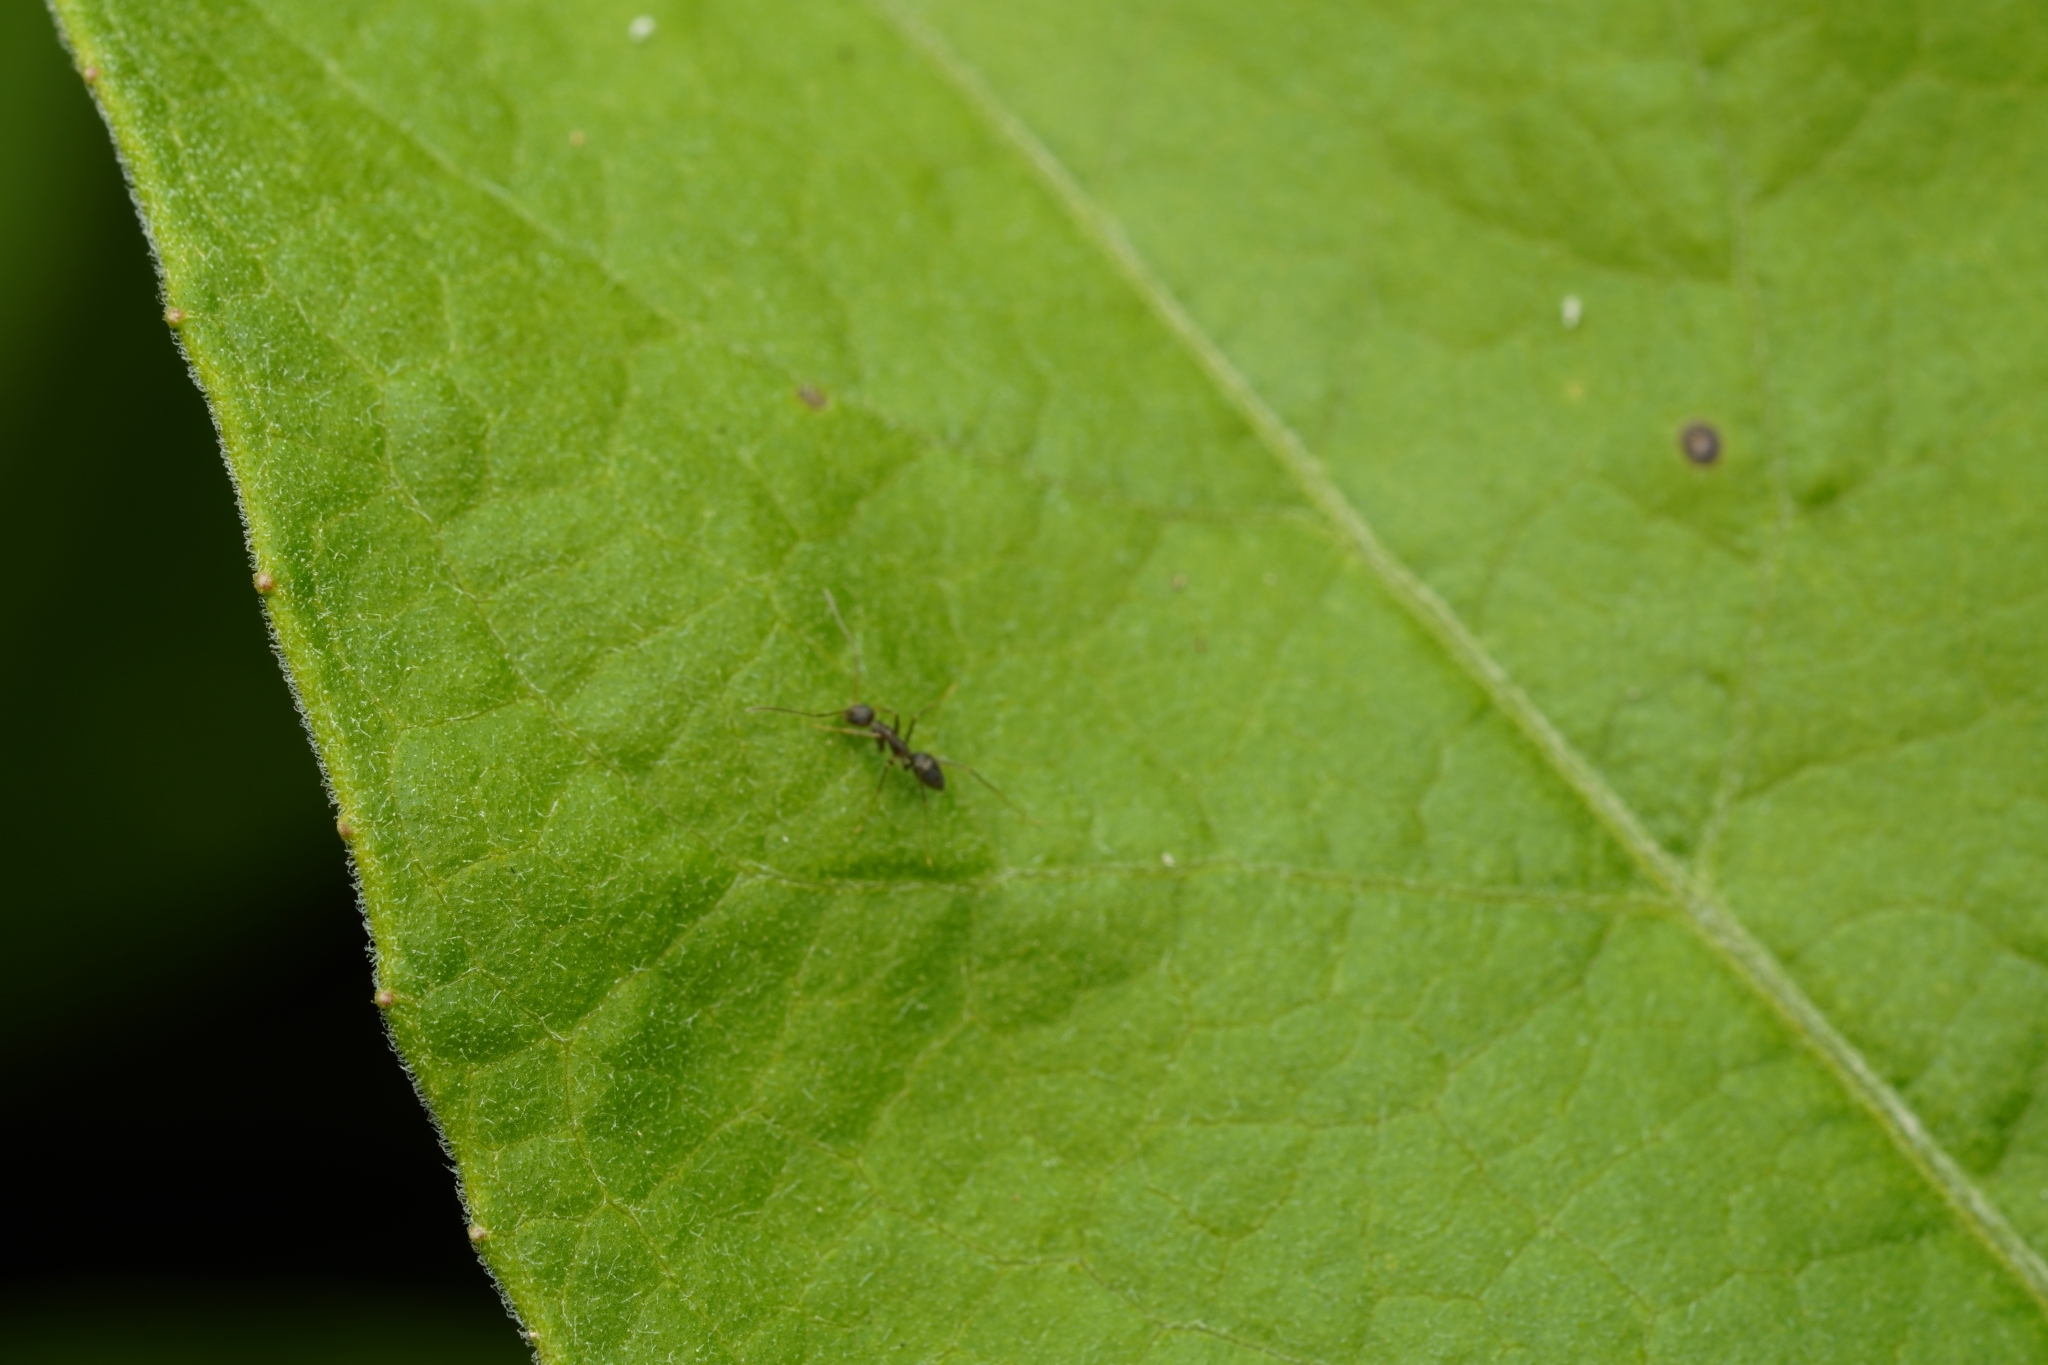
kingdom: Animalia
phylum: Arthropoda
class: Insecta
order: Hymenoptera
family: Formicidae
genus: Paratrechina
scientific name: Paratrechina longicornis
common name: Longhorned crazy ant
